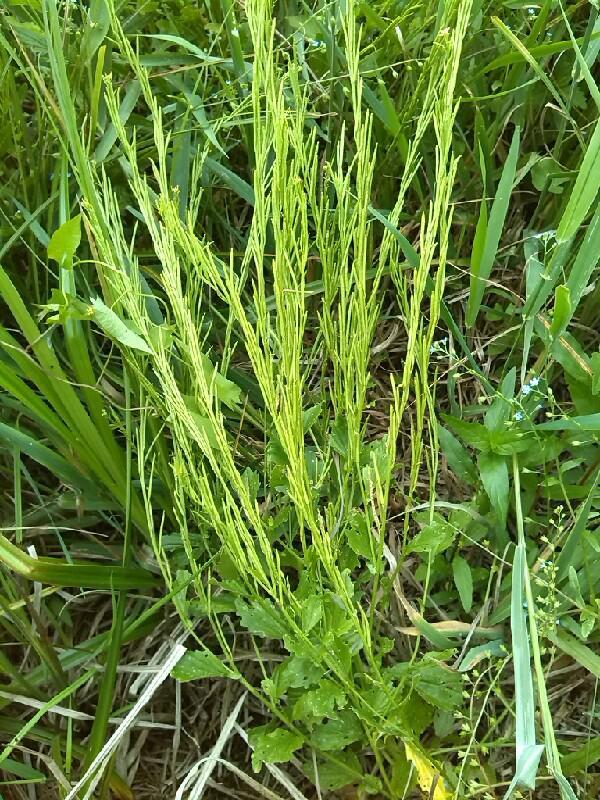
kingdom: Plantae
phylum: Tracheophyta
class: Magnoliopsida
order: Brassicales
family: Brassicaceae
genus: Barbarea
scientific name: Barbarea stricta
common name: Small-flowered winter-cress
